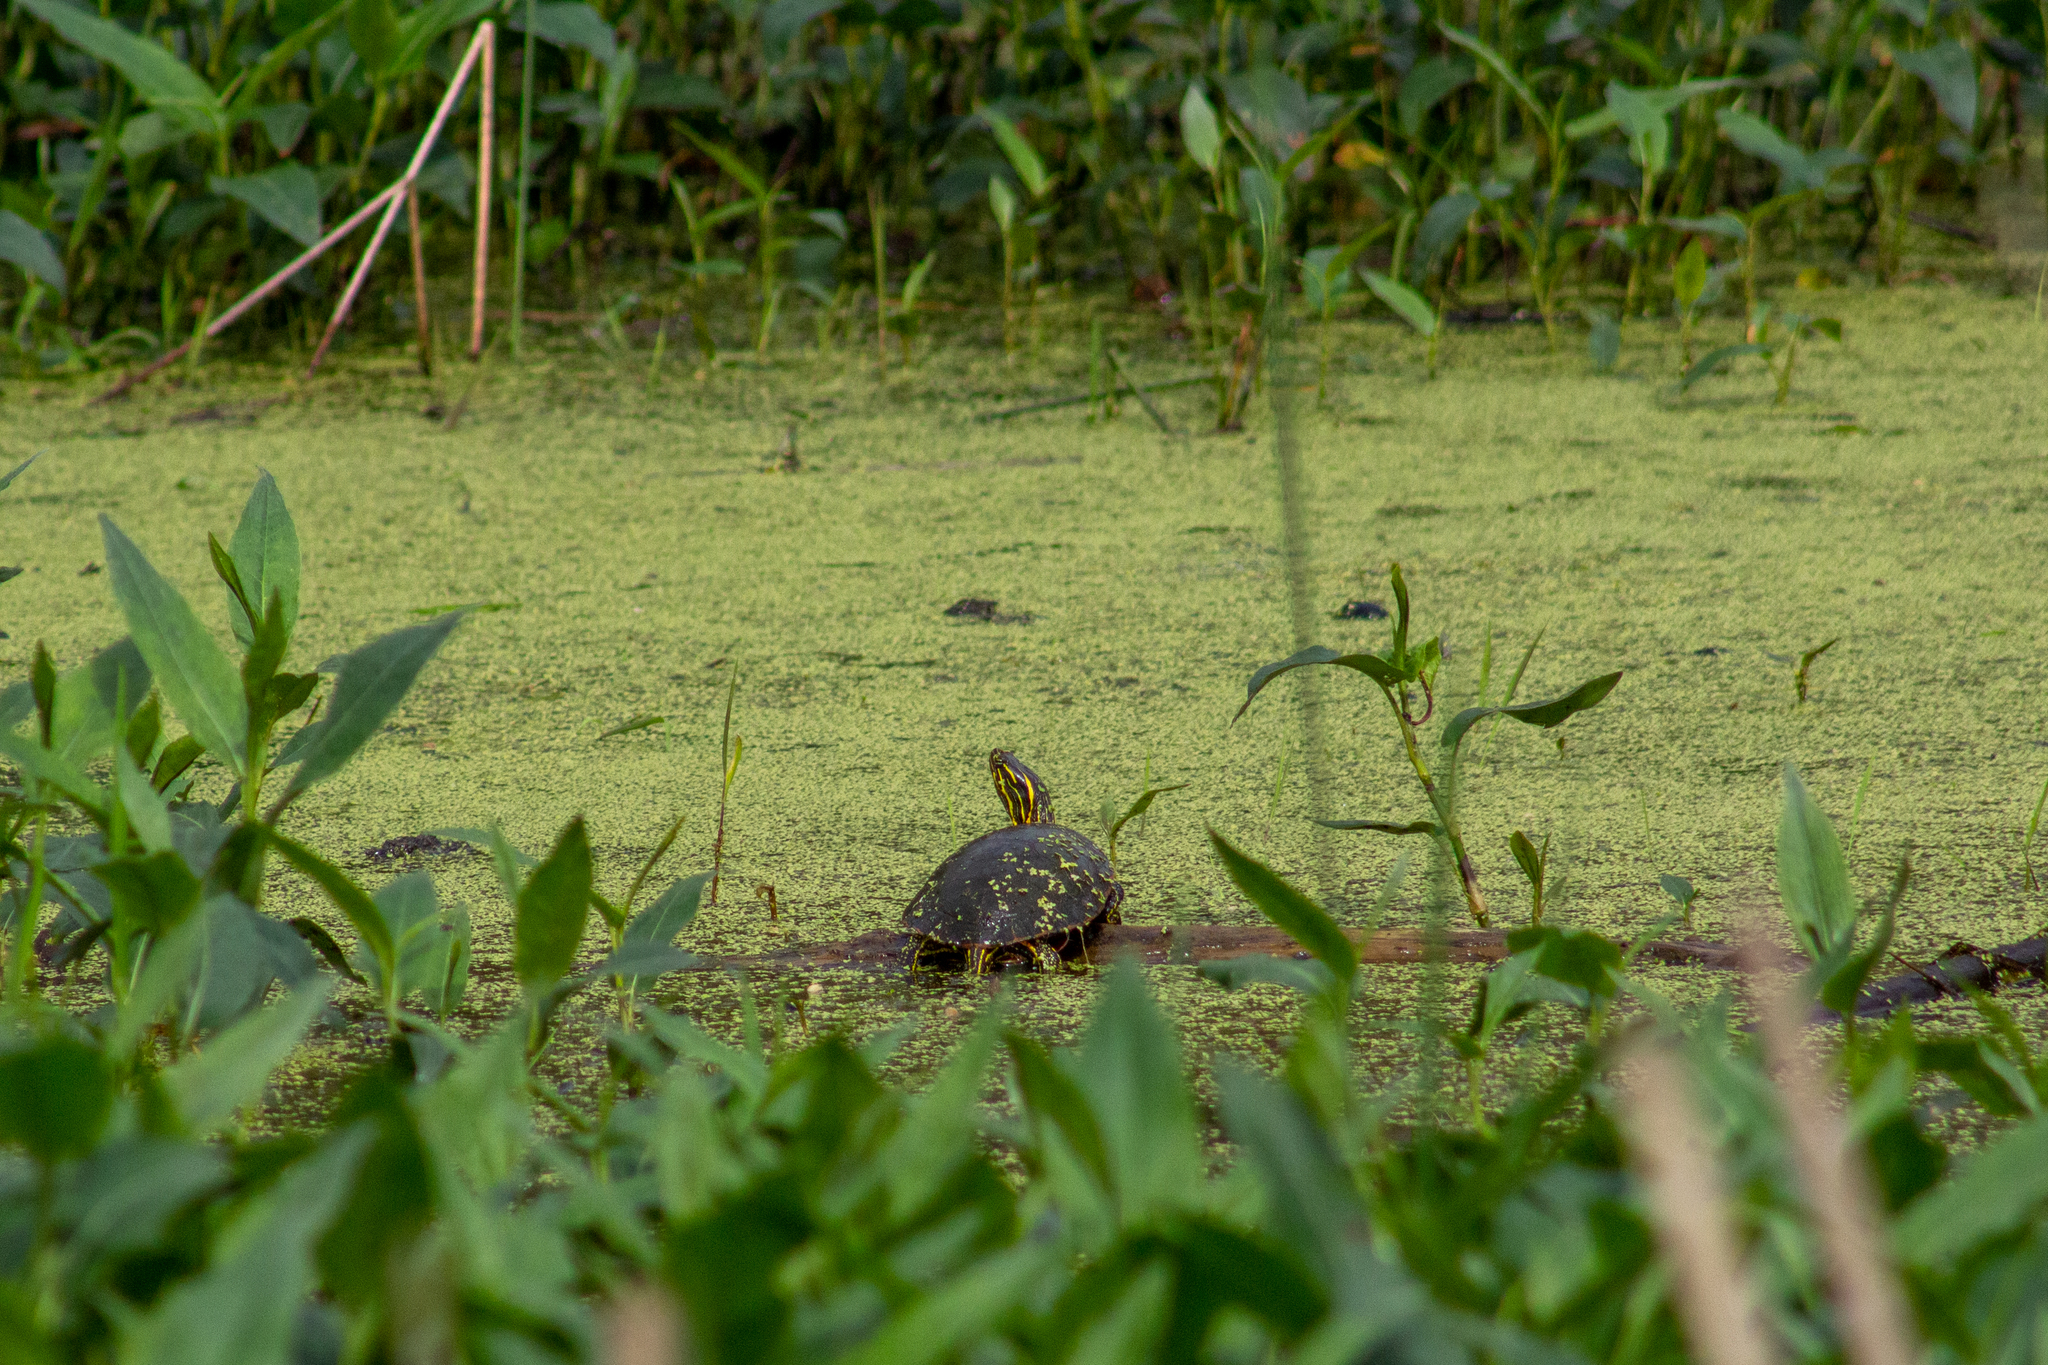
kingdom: Animalia
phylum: Chordata
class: Testudines
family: Emydidae
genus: Chrysemys
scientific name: Chrysemys picta
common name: Painted turtle
